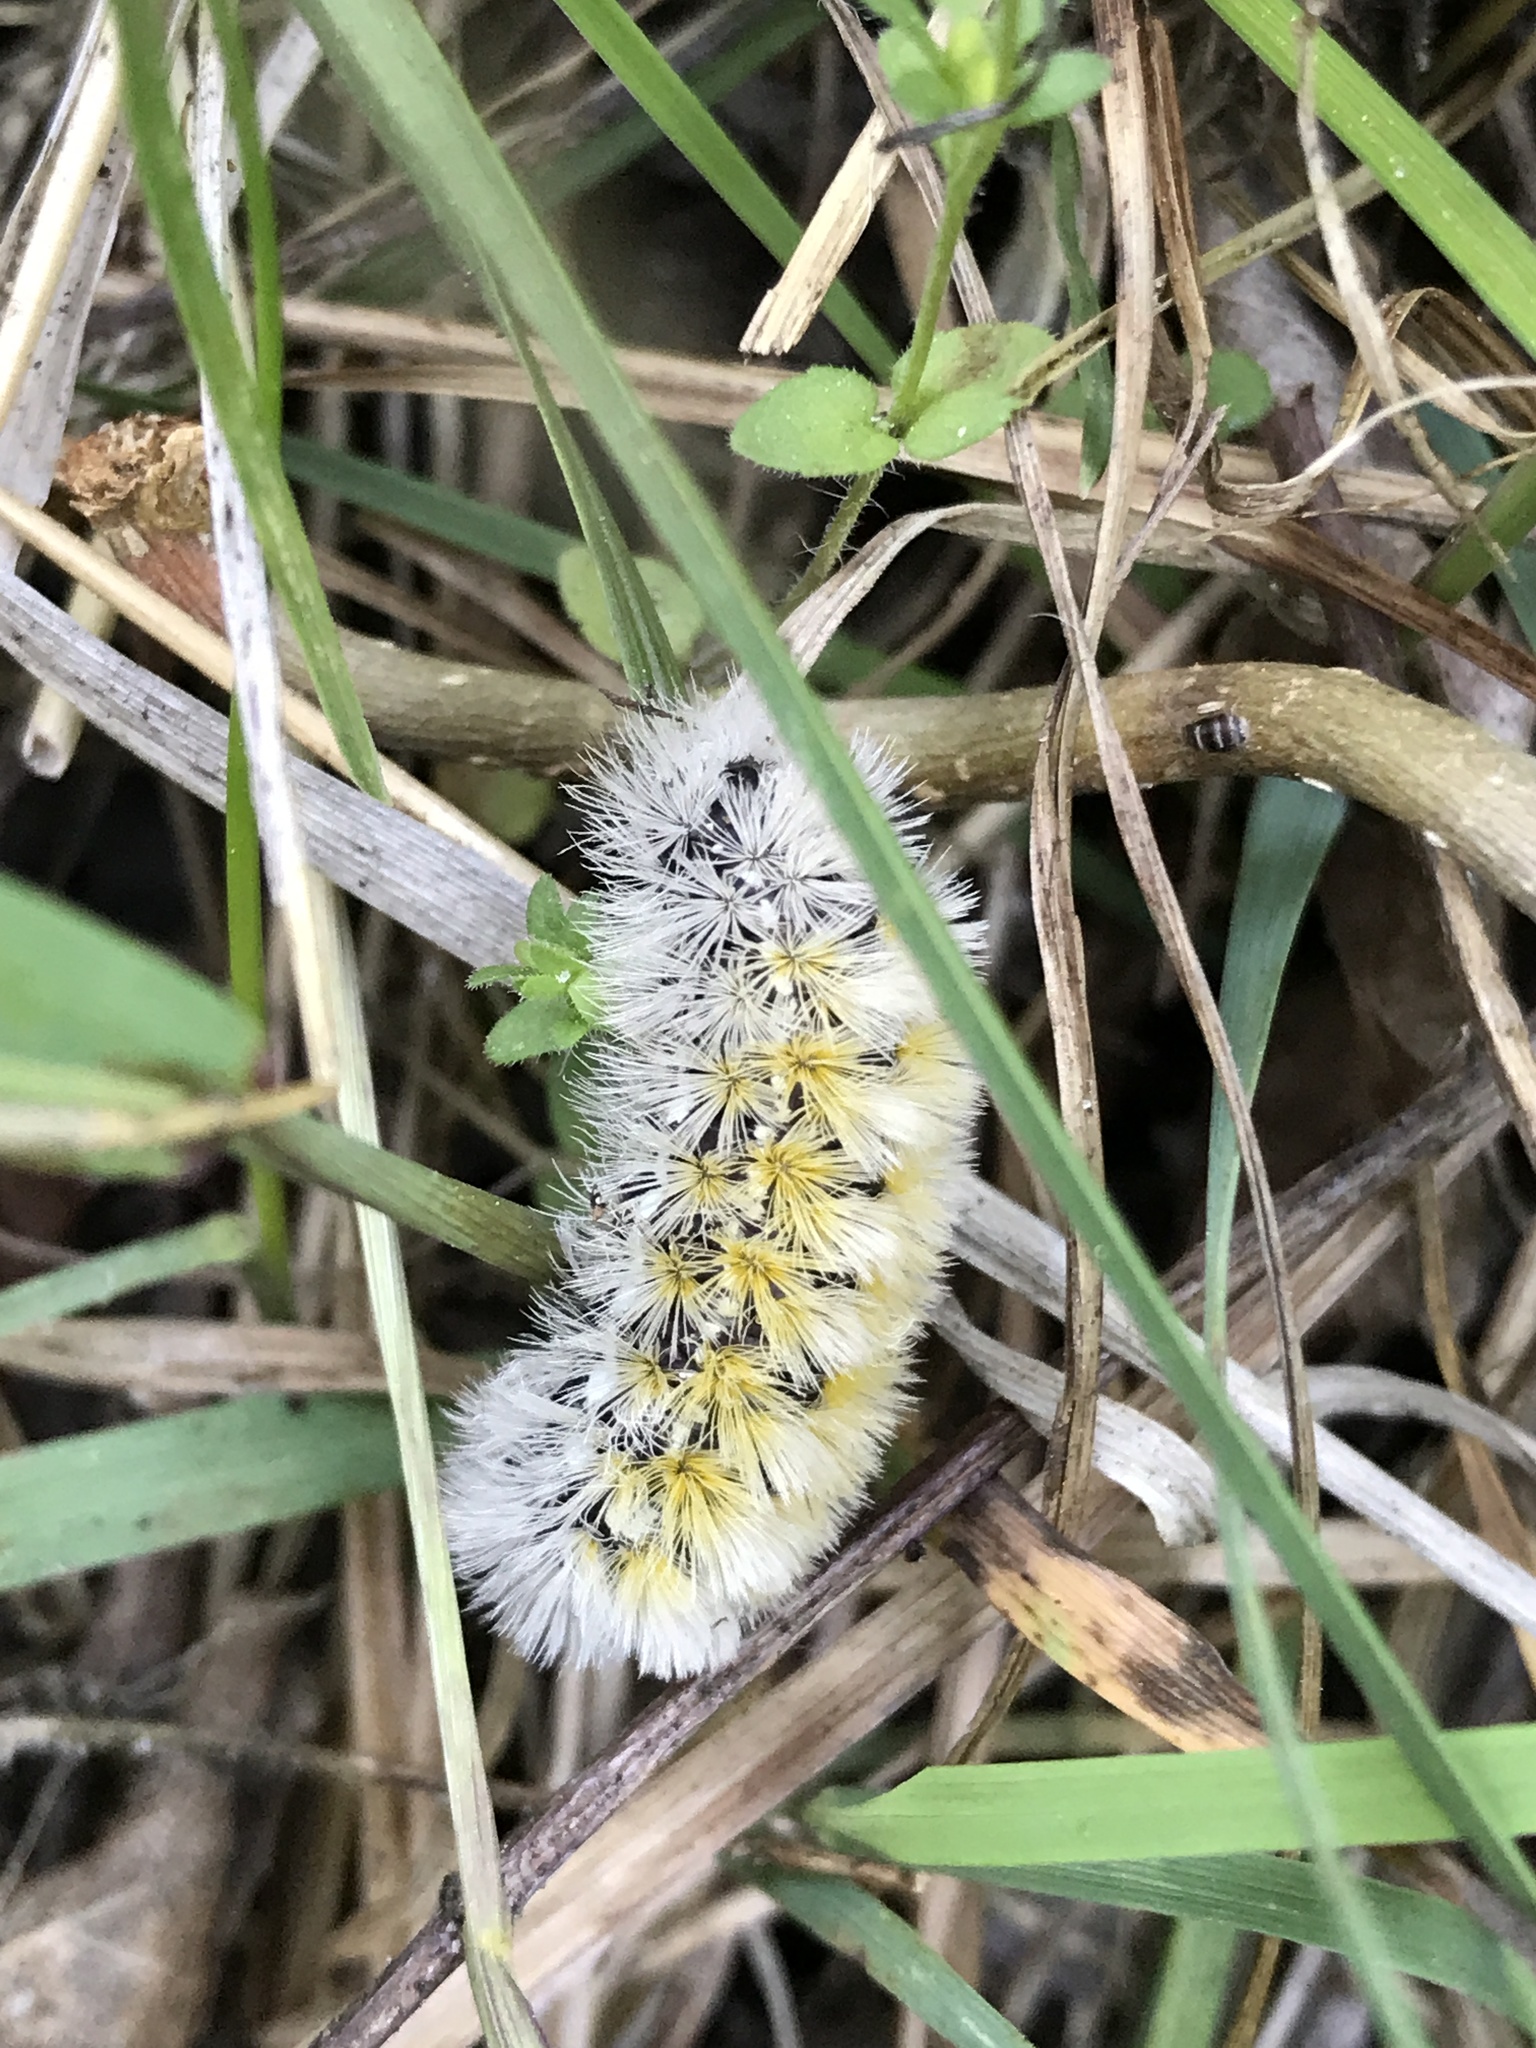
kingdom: Animalia
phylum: Arthropoda
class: Insecta
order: Lepidoptera
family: Erebidae
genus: Ctenucha
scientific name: Ctenucha virginica
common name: Virginia ctenucha moth
